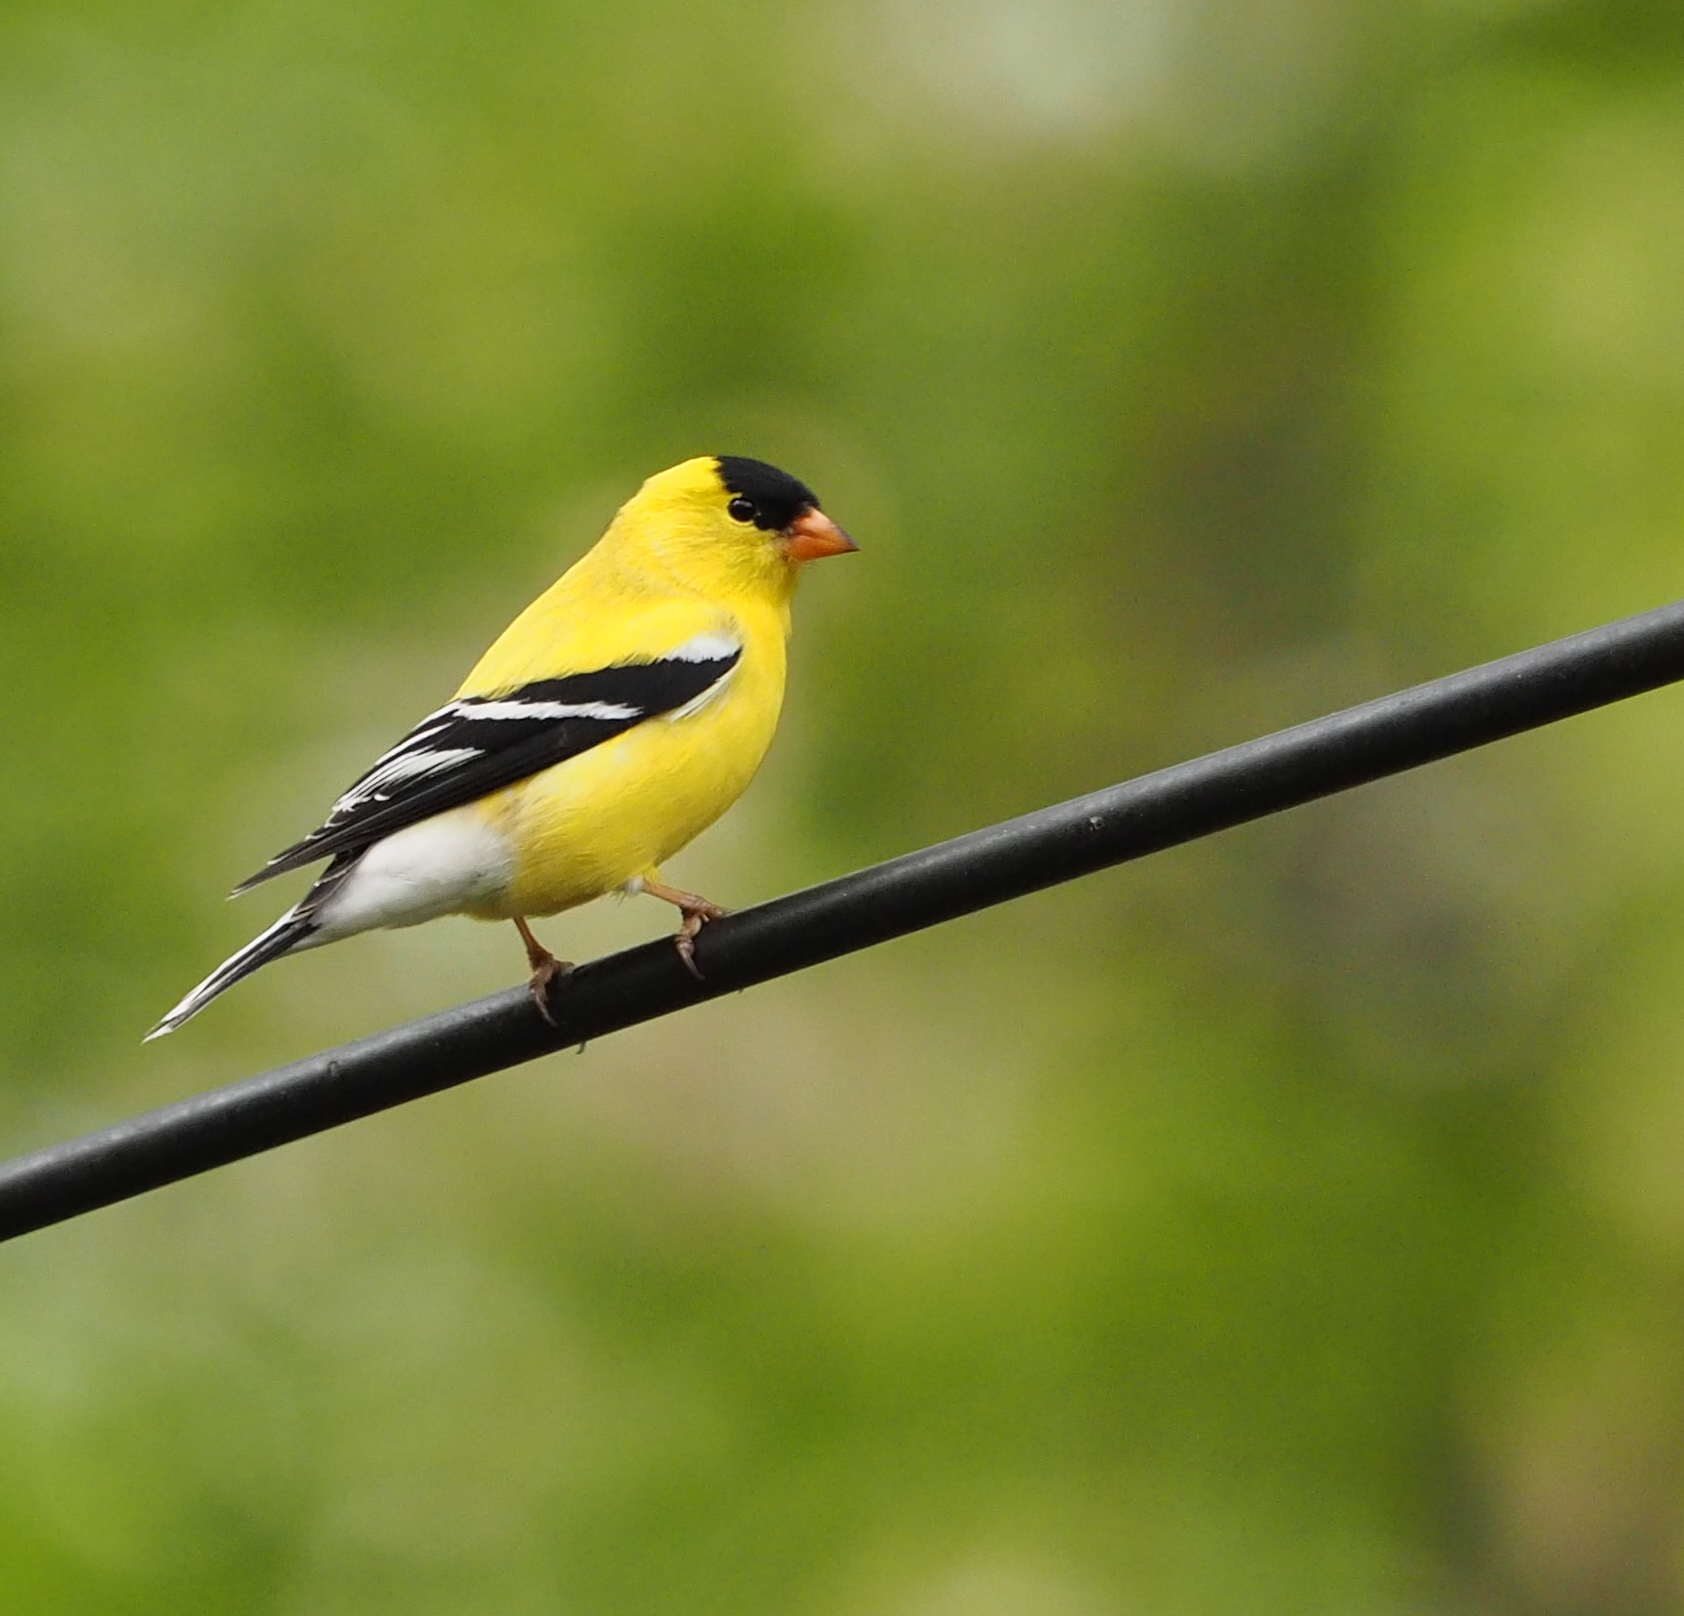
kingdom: Animalia
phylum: Chordata
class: Aves
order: Passeriformes
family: Fringillidae
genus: Spinus
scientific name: Spinus tristis
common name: American goldfinch
